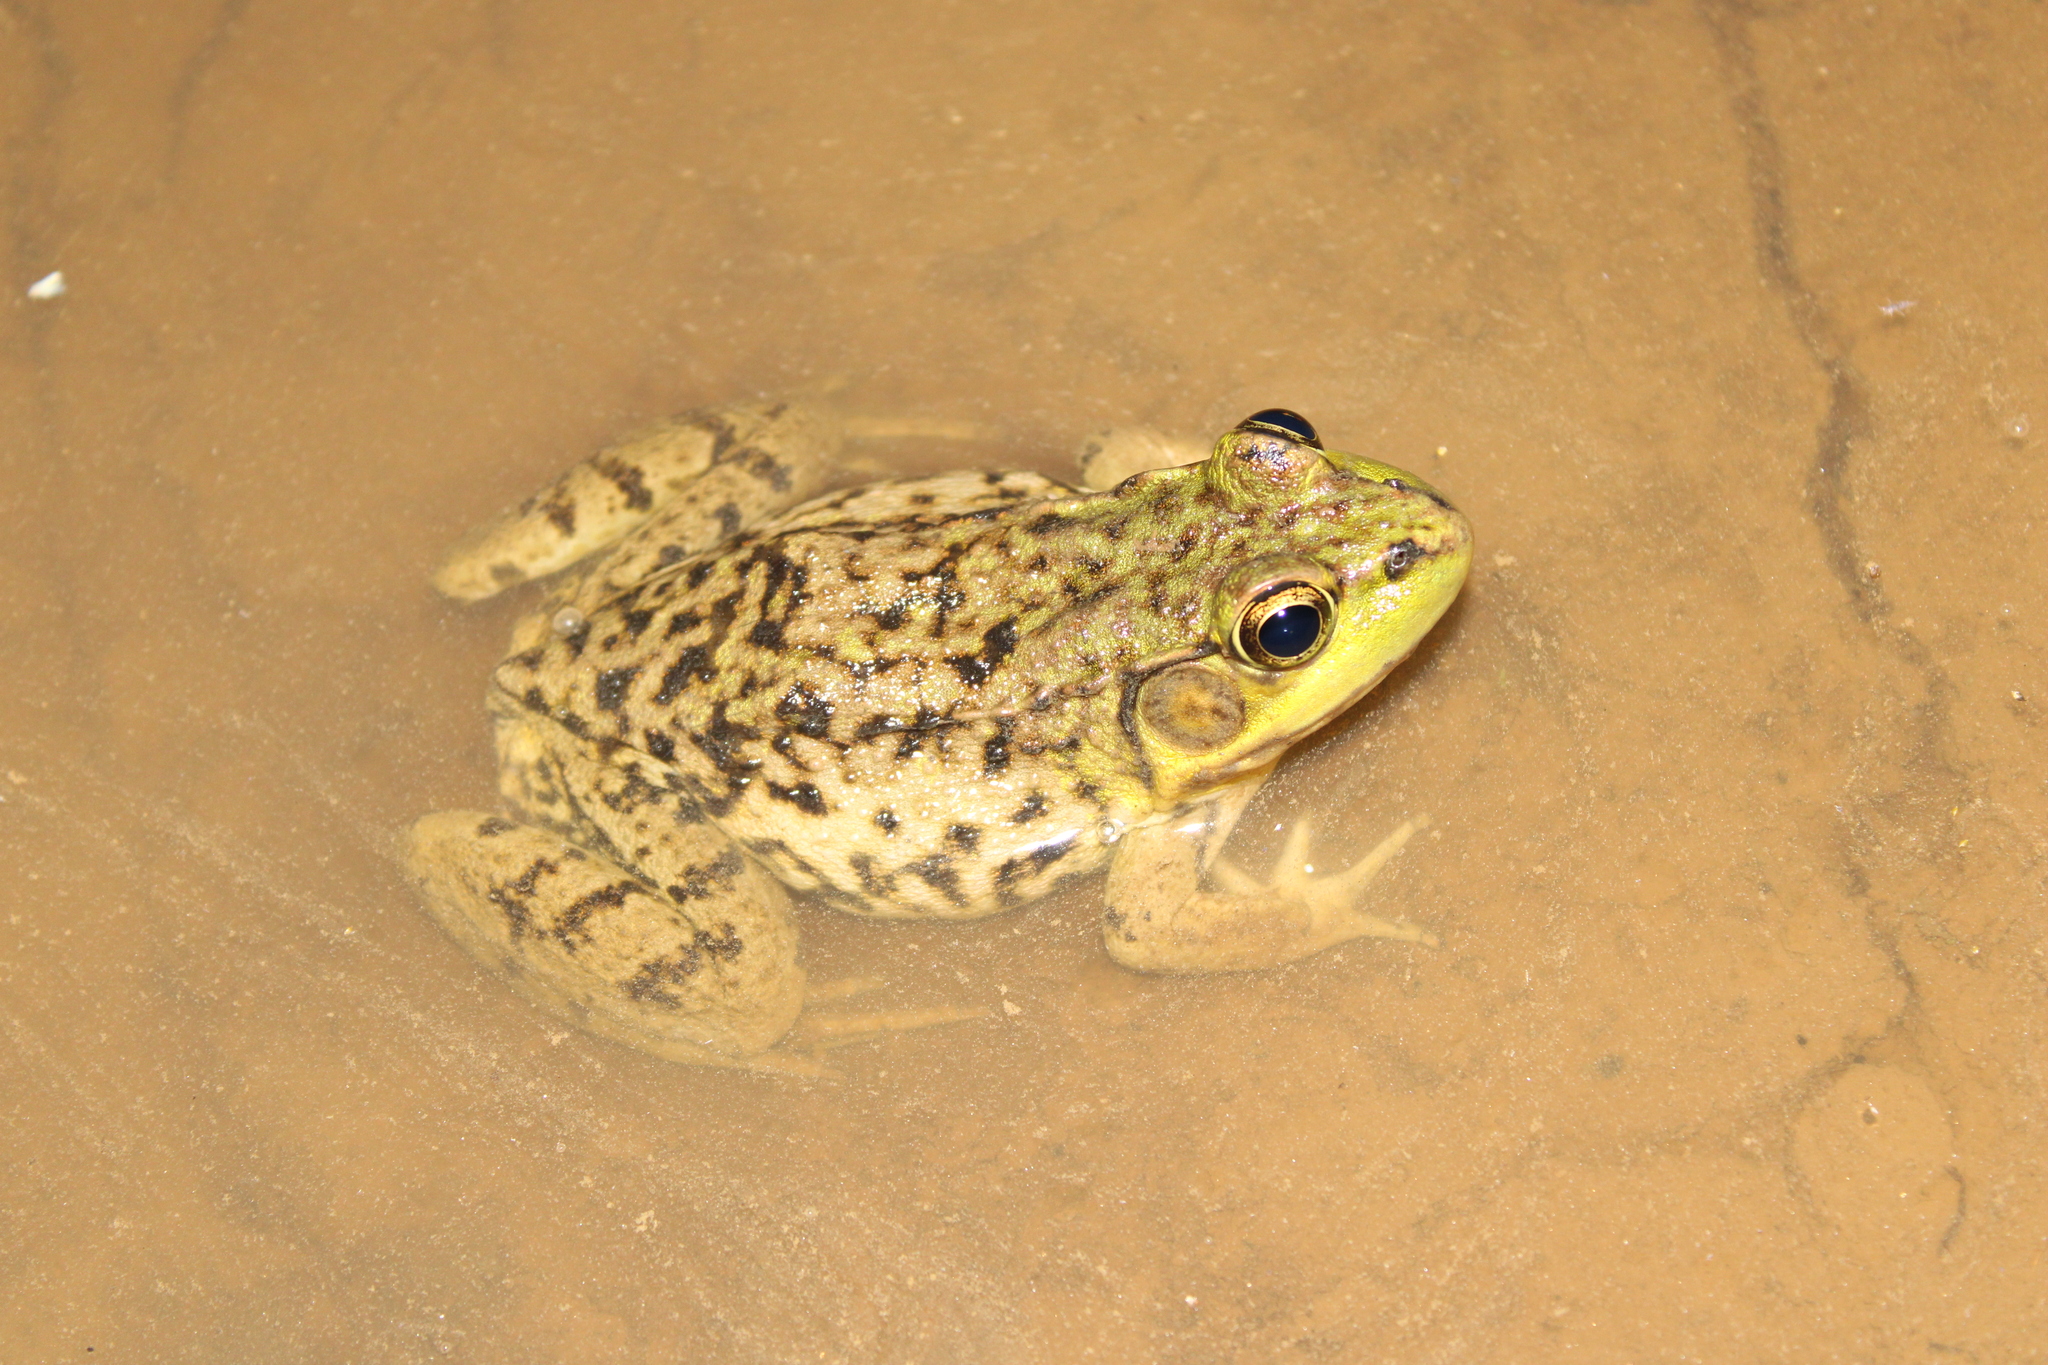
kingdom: Animalia
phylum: Chordata
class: Amphibia
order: Anura
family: Ranidae
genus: Lithobates
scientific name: Lithobates clamitans
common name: Green frog
